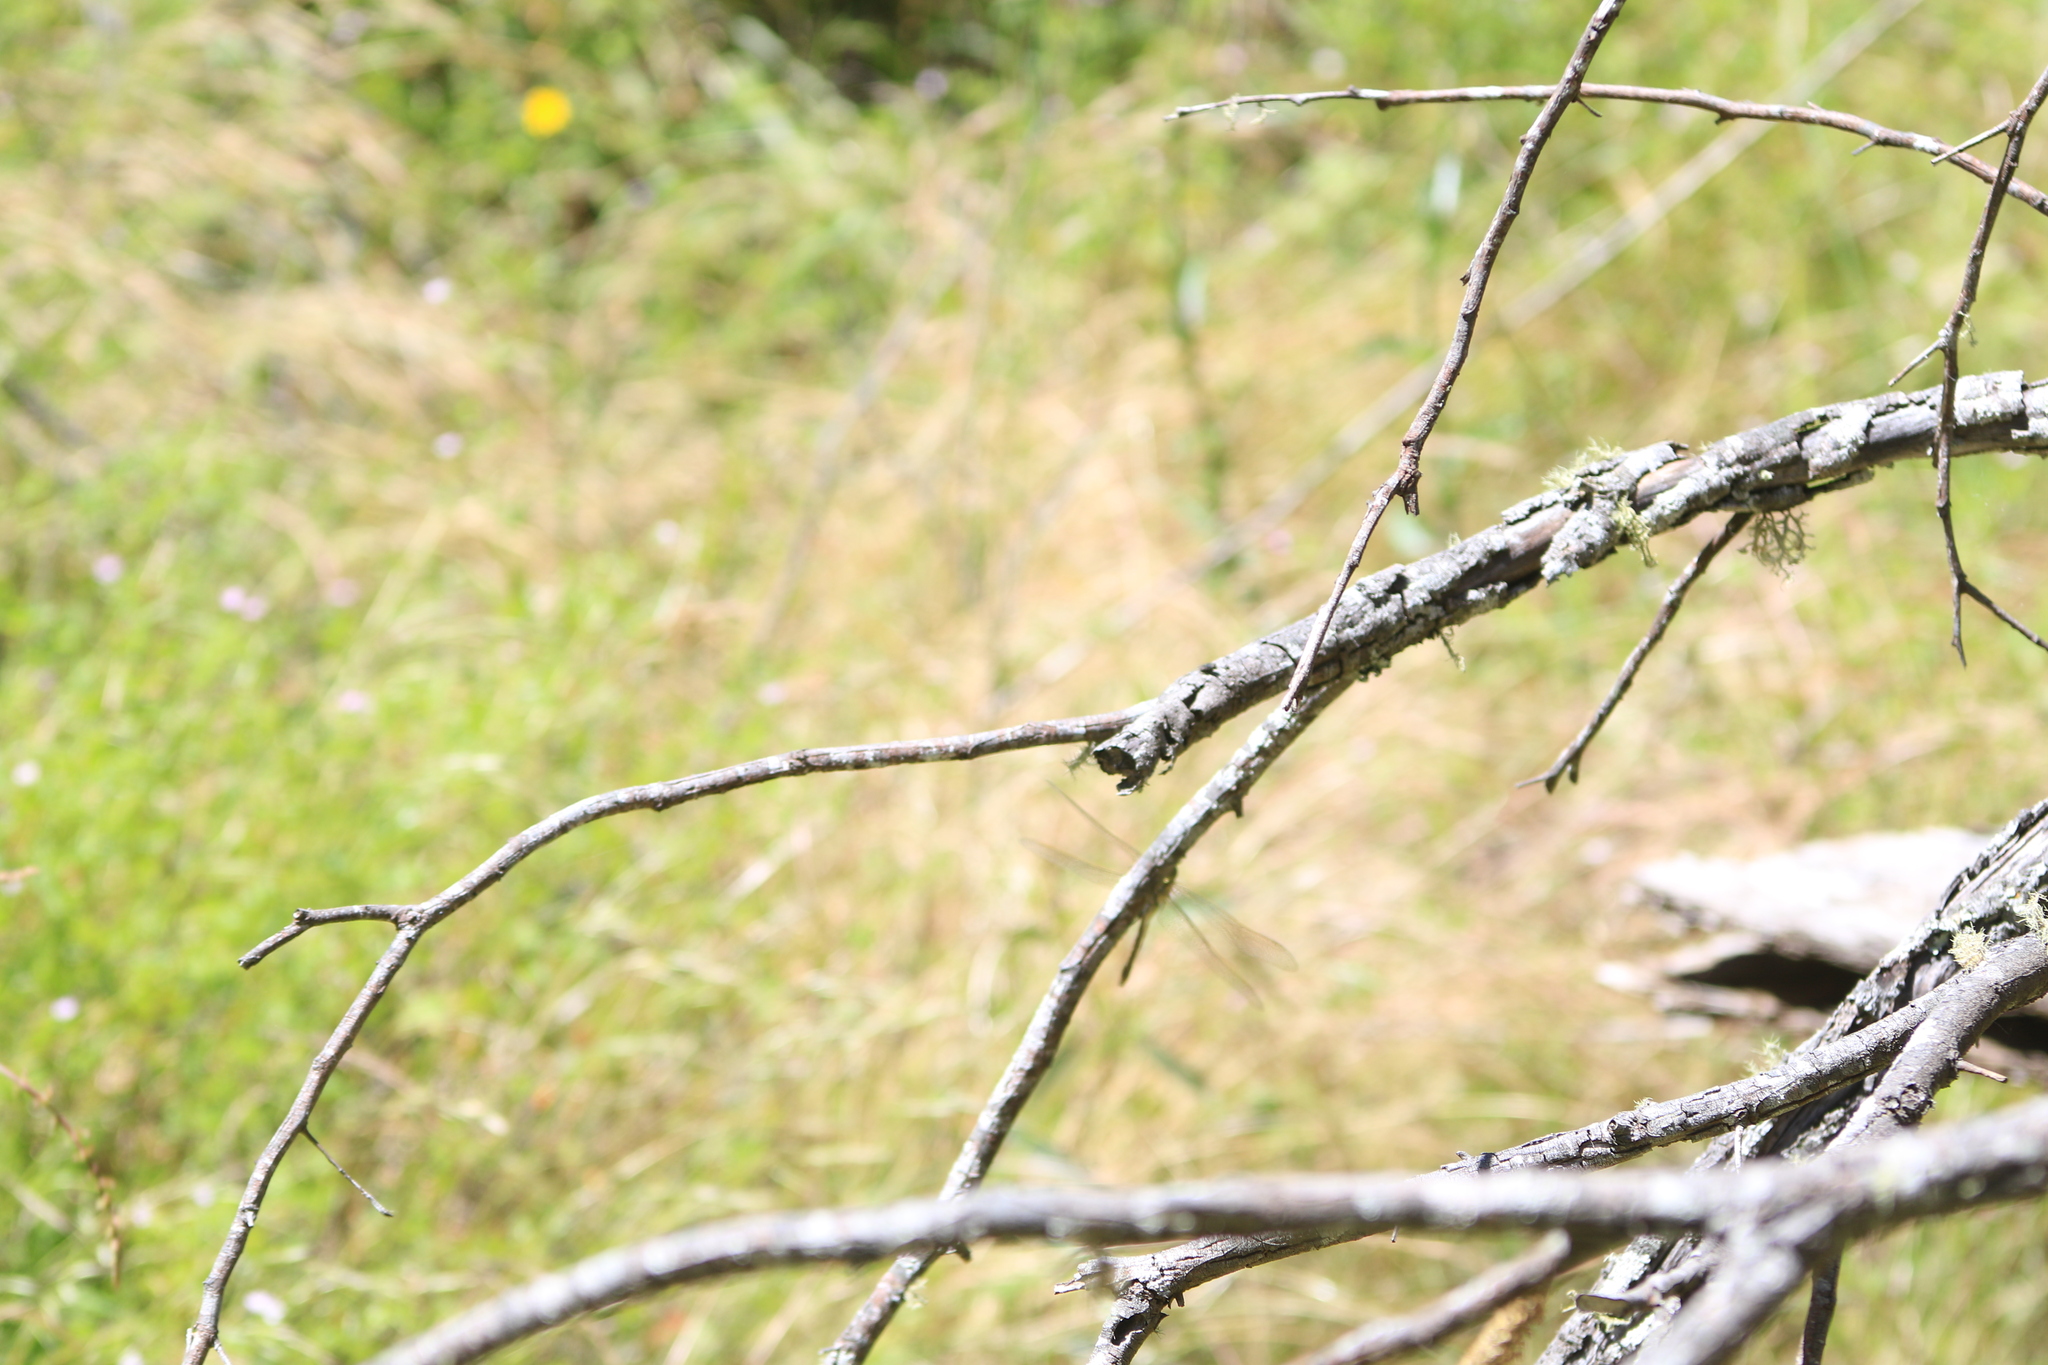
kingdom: Animalia
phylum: Arthropoda
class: Insecta
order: Odonata
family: Aeshnidae
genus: Anax
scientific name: Anax papuensis
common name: Australian emperor
